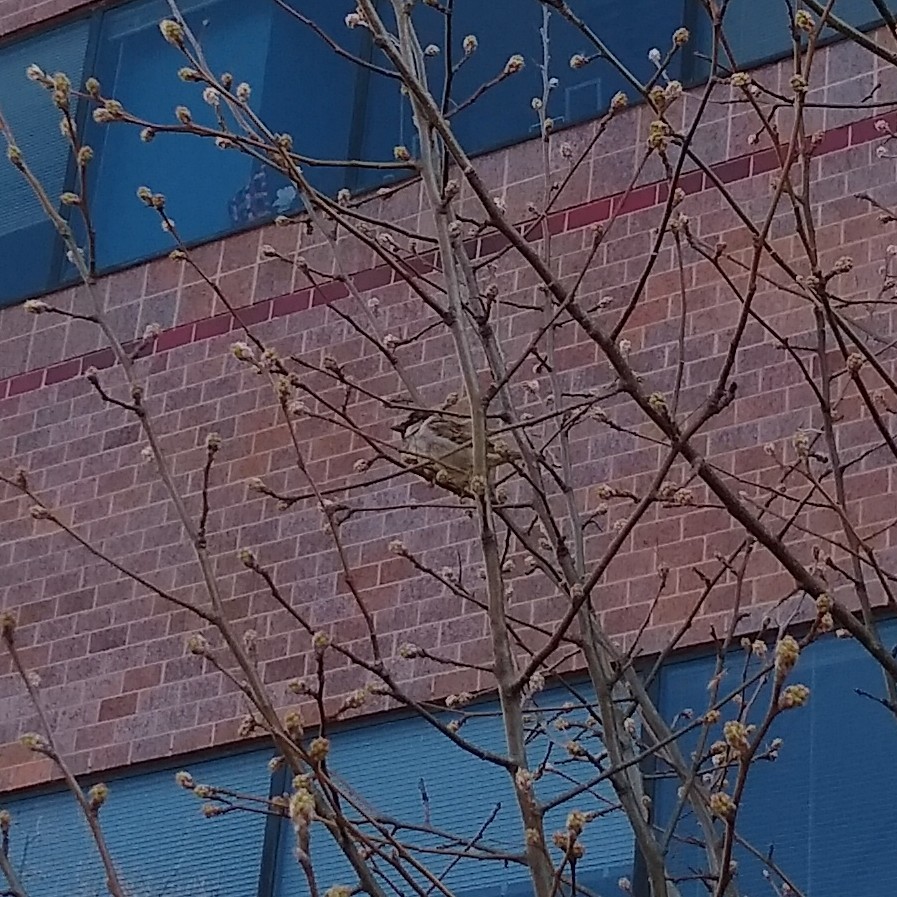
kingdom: Animalia
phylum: Chordata
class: Aves
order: Passeriformes
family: Passeridae
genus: Passer
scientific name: Passer domesticus
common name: House sparrow
